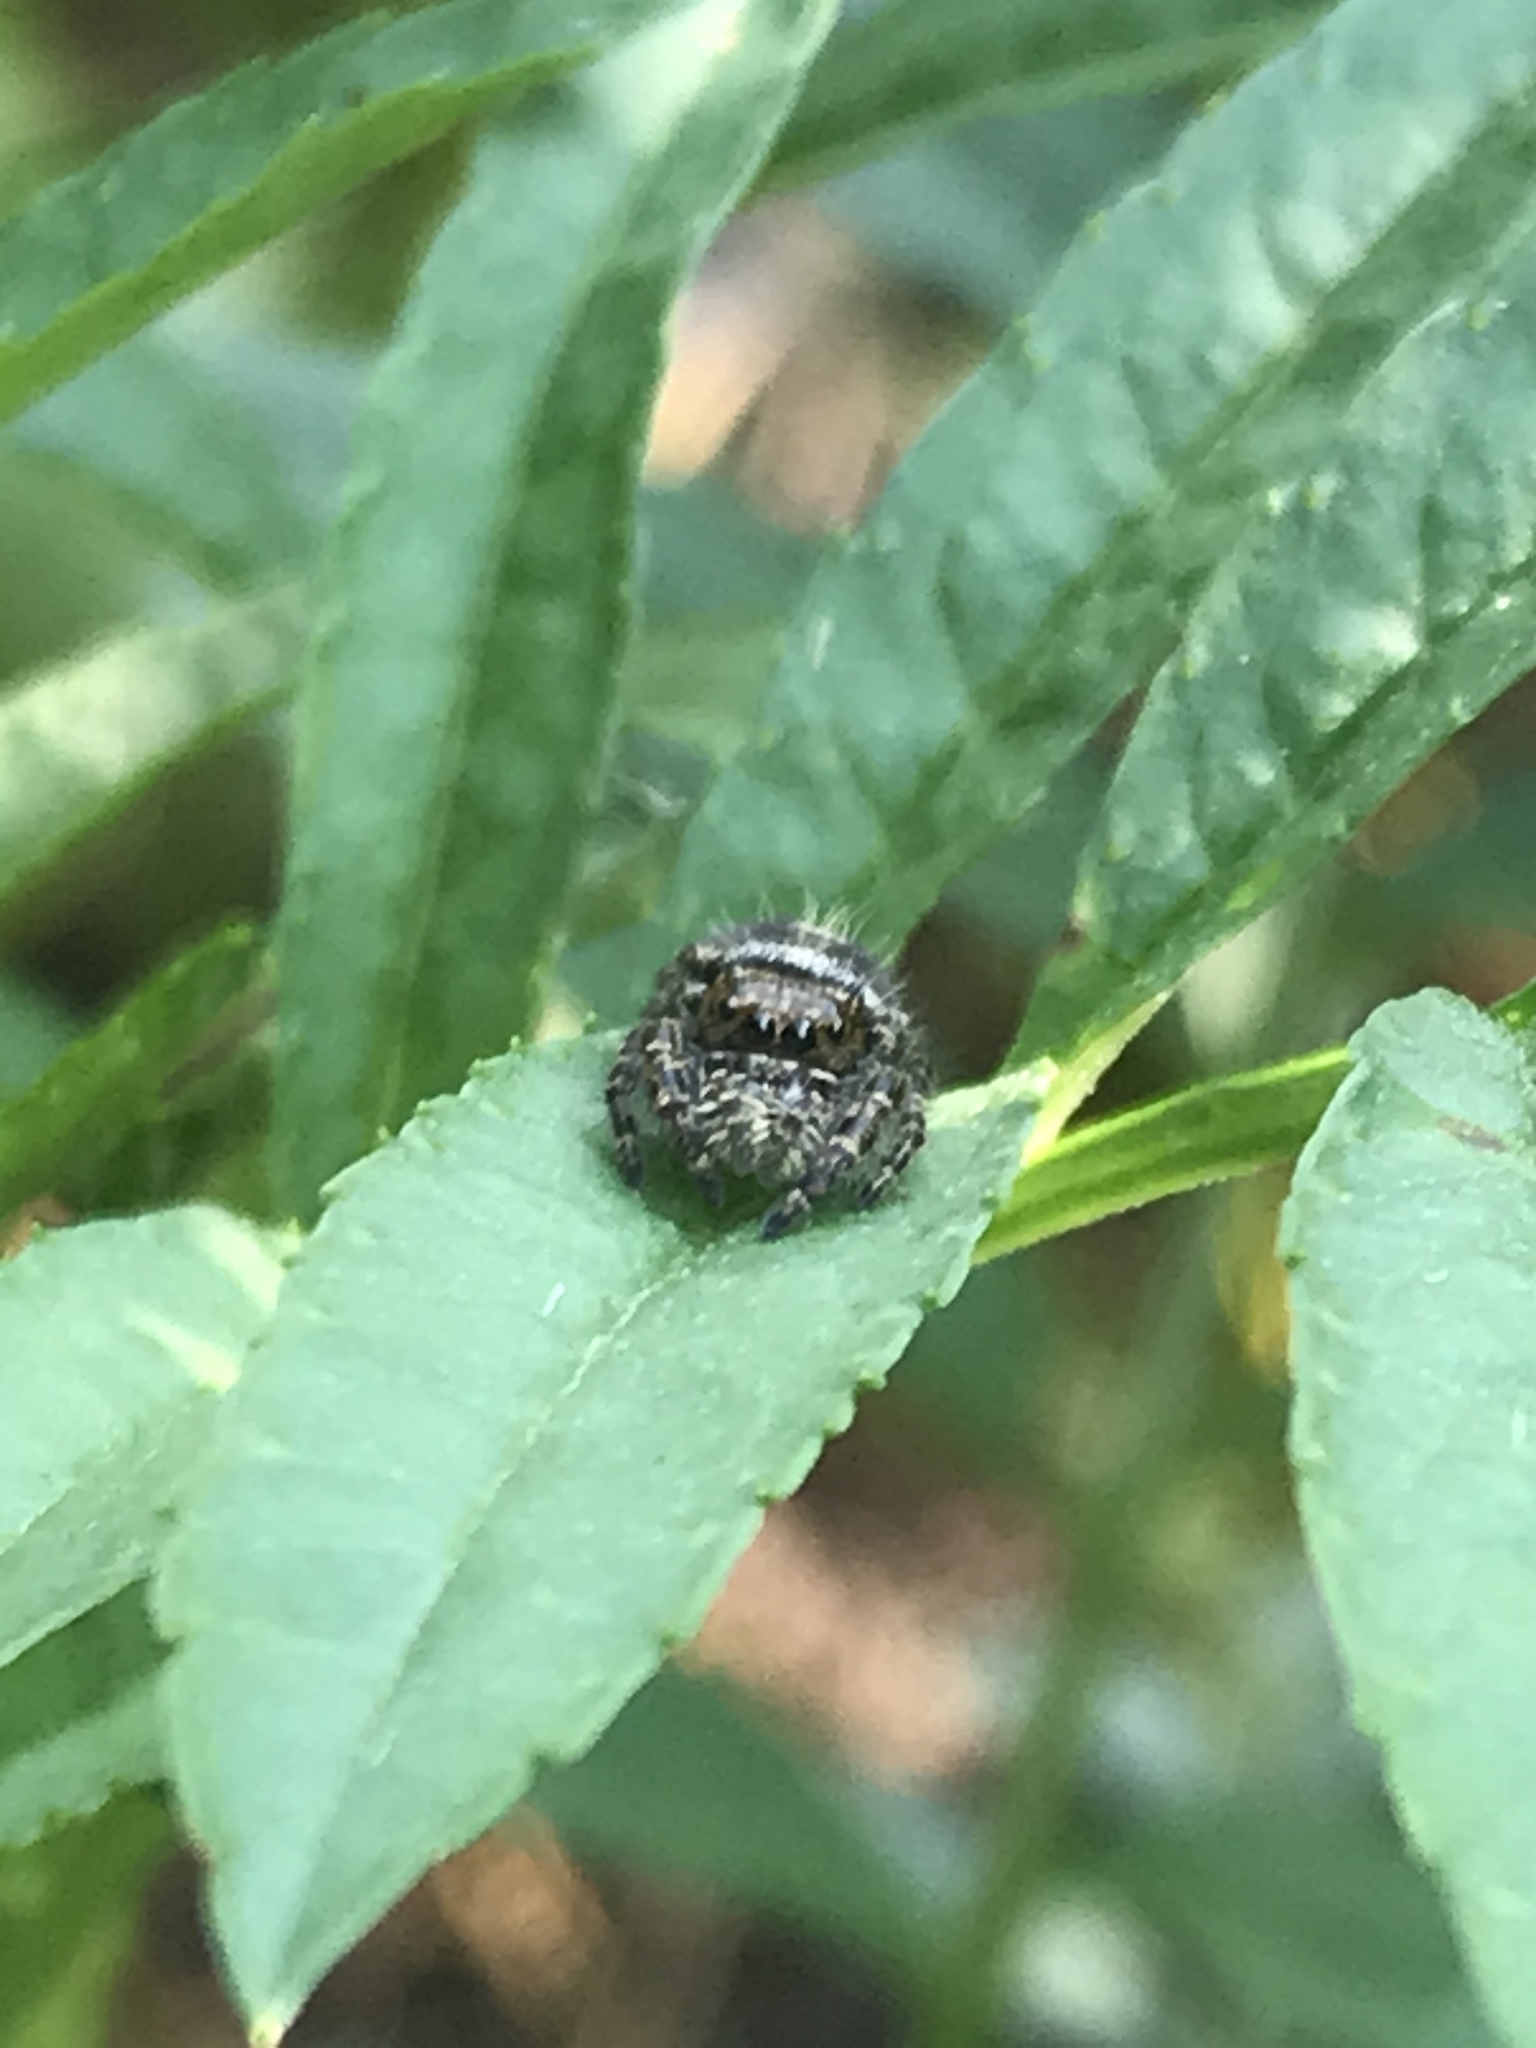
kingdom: Animalia
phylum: Arthropoda
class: Arachnida
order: Araneae
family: Salticidae
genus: Phidippus
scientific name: Phidippus audax
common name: Bold jumper
